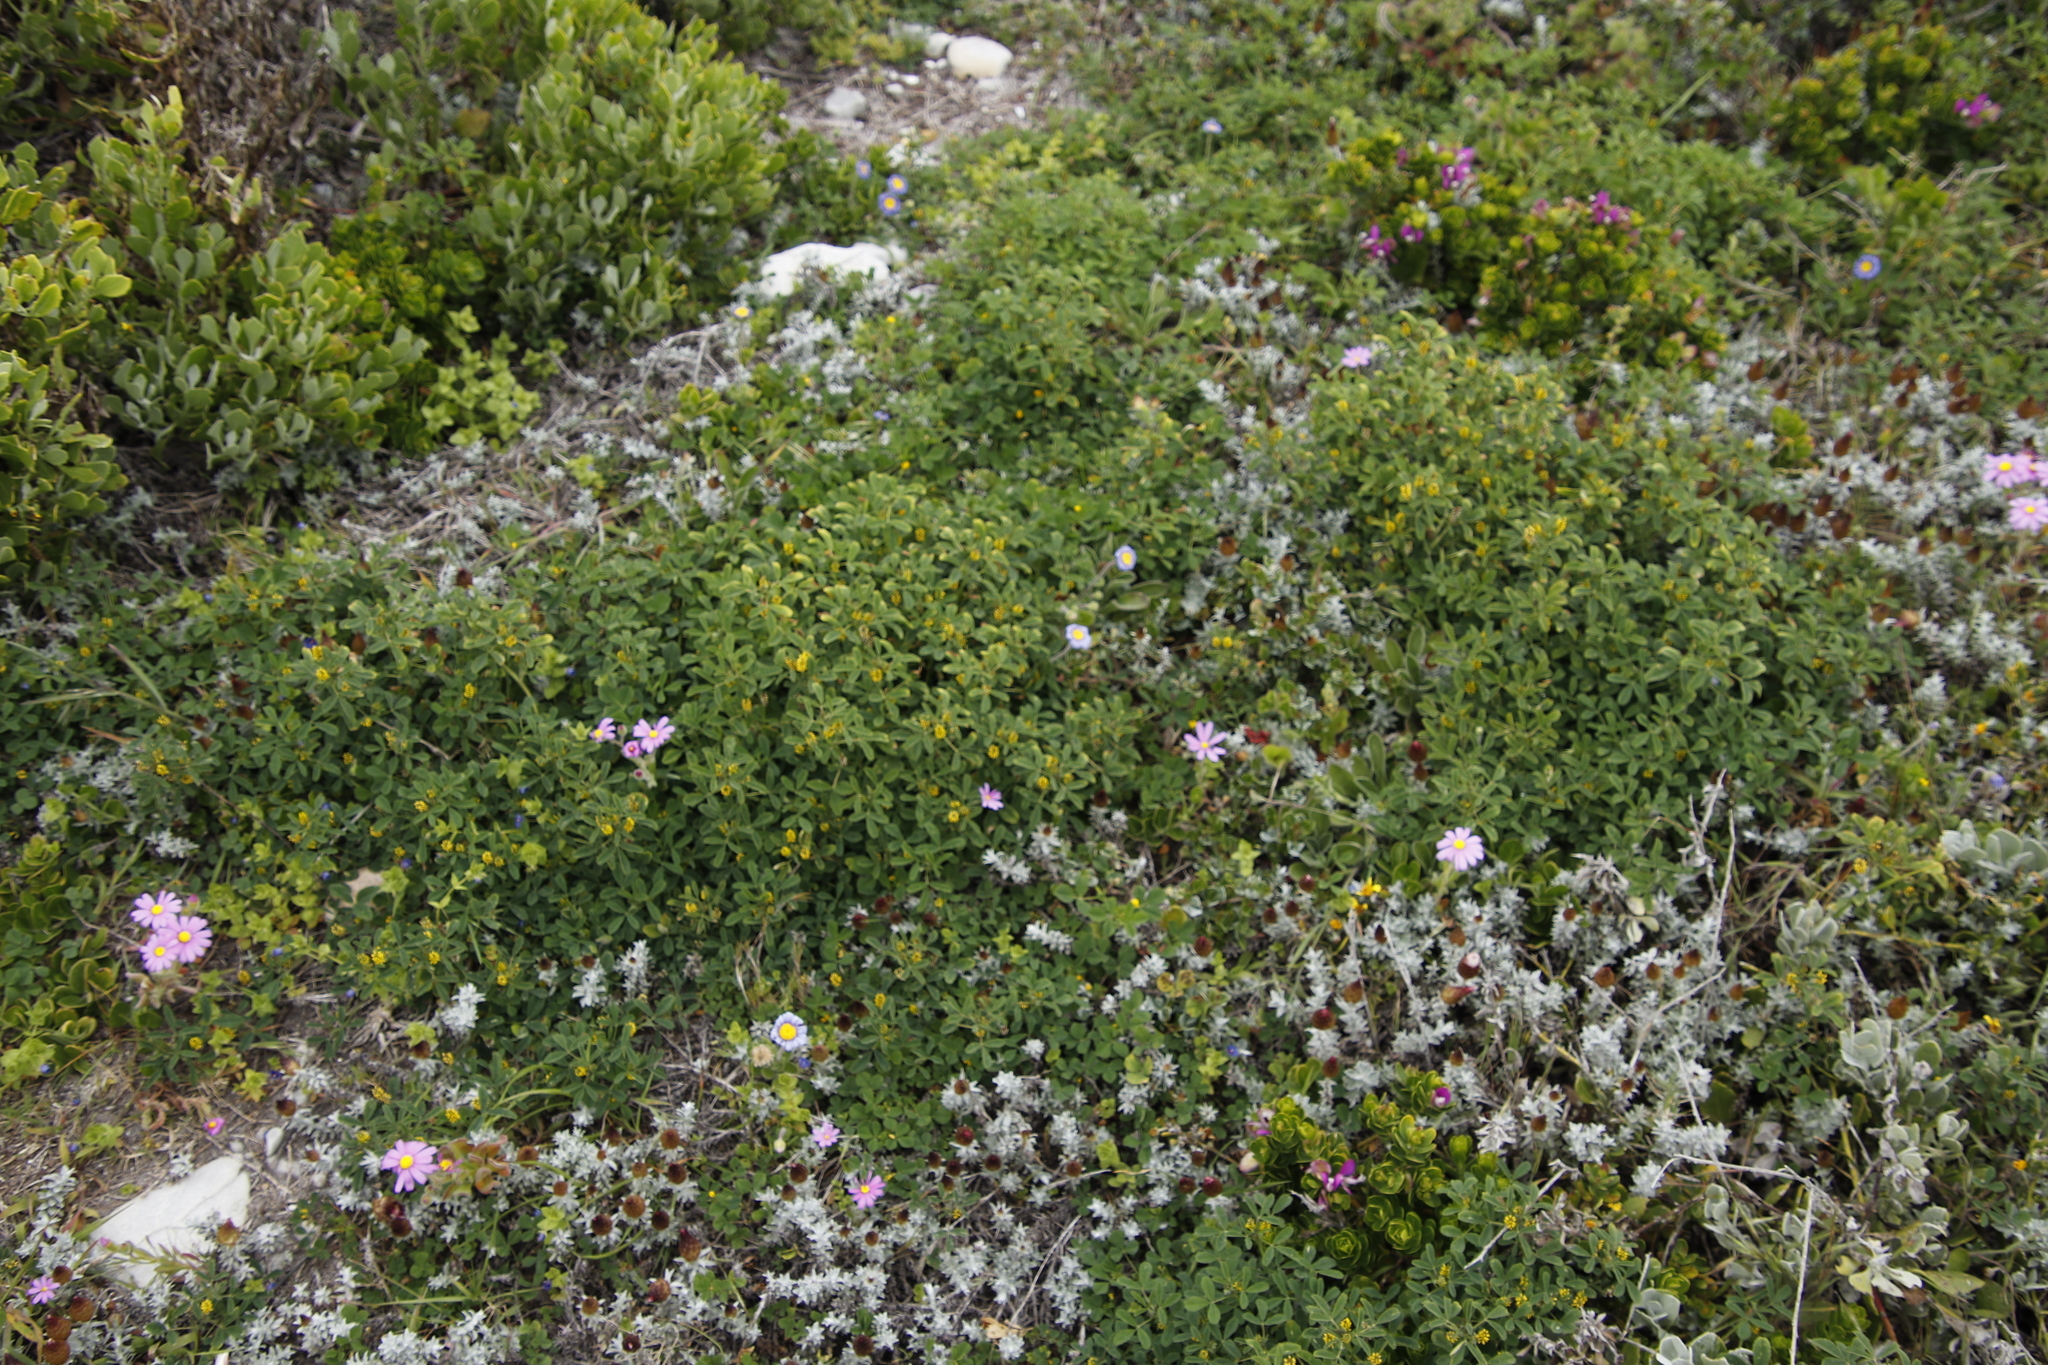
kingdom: Plantae
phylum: Tracheophyta
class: Magnoliopsida
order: Fabales
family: Fabaceae
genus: Melilotus
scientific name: Melilotus indicus
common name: Small melilot
